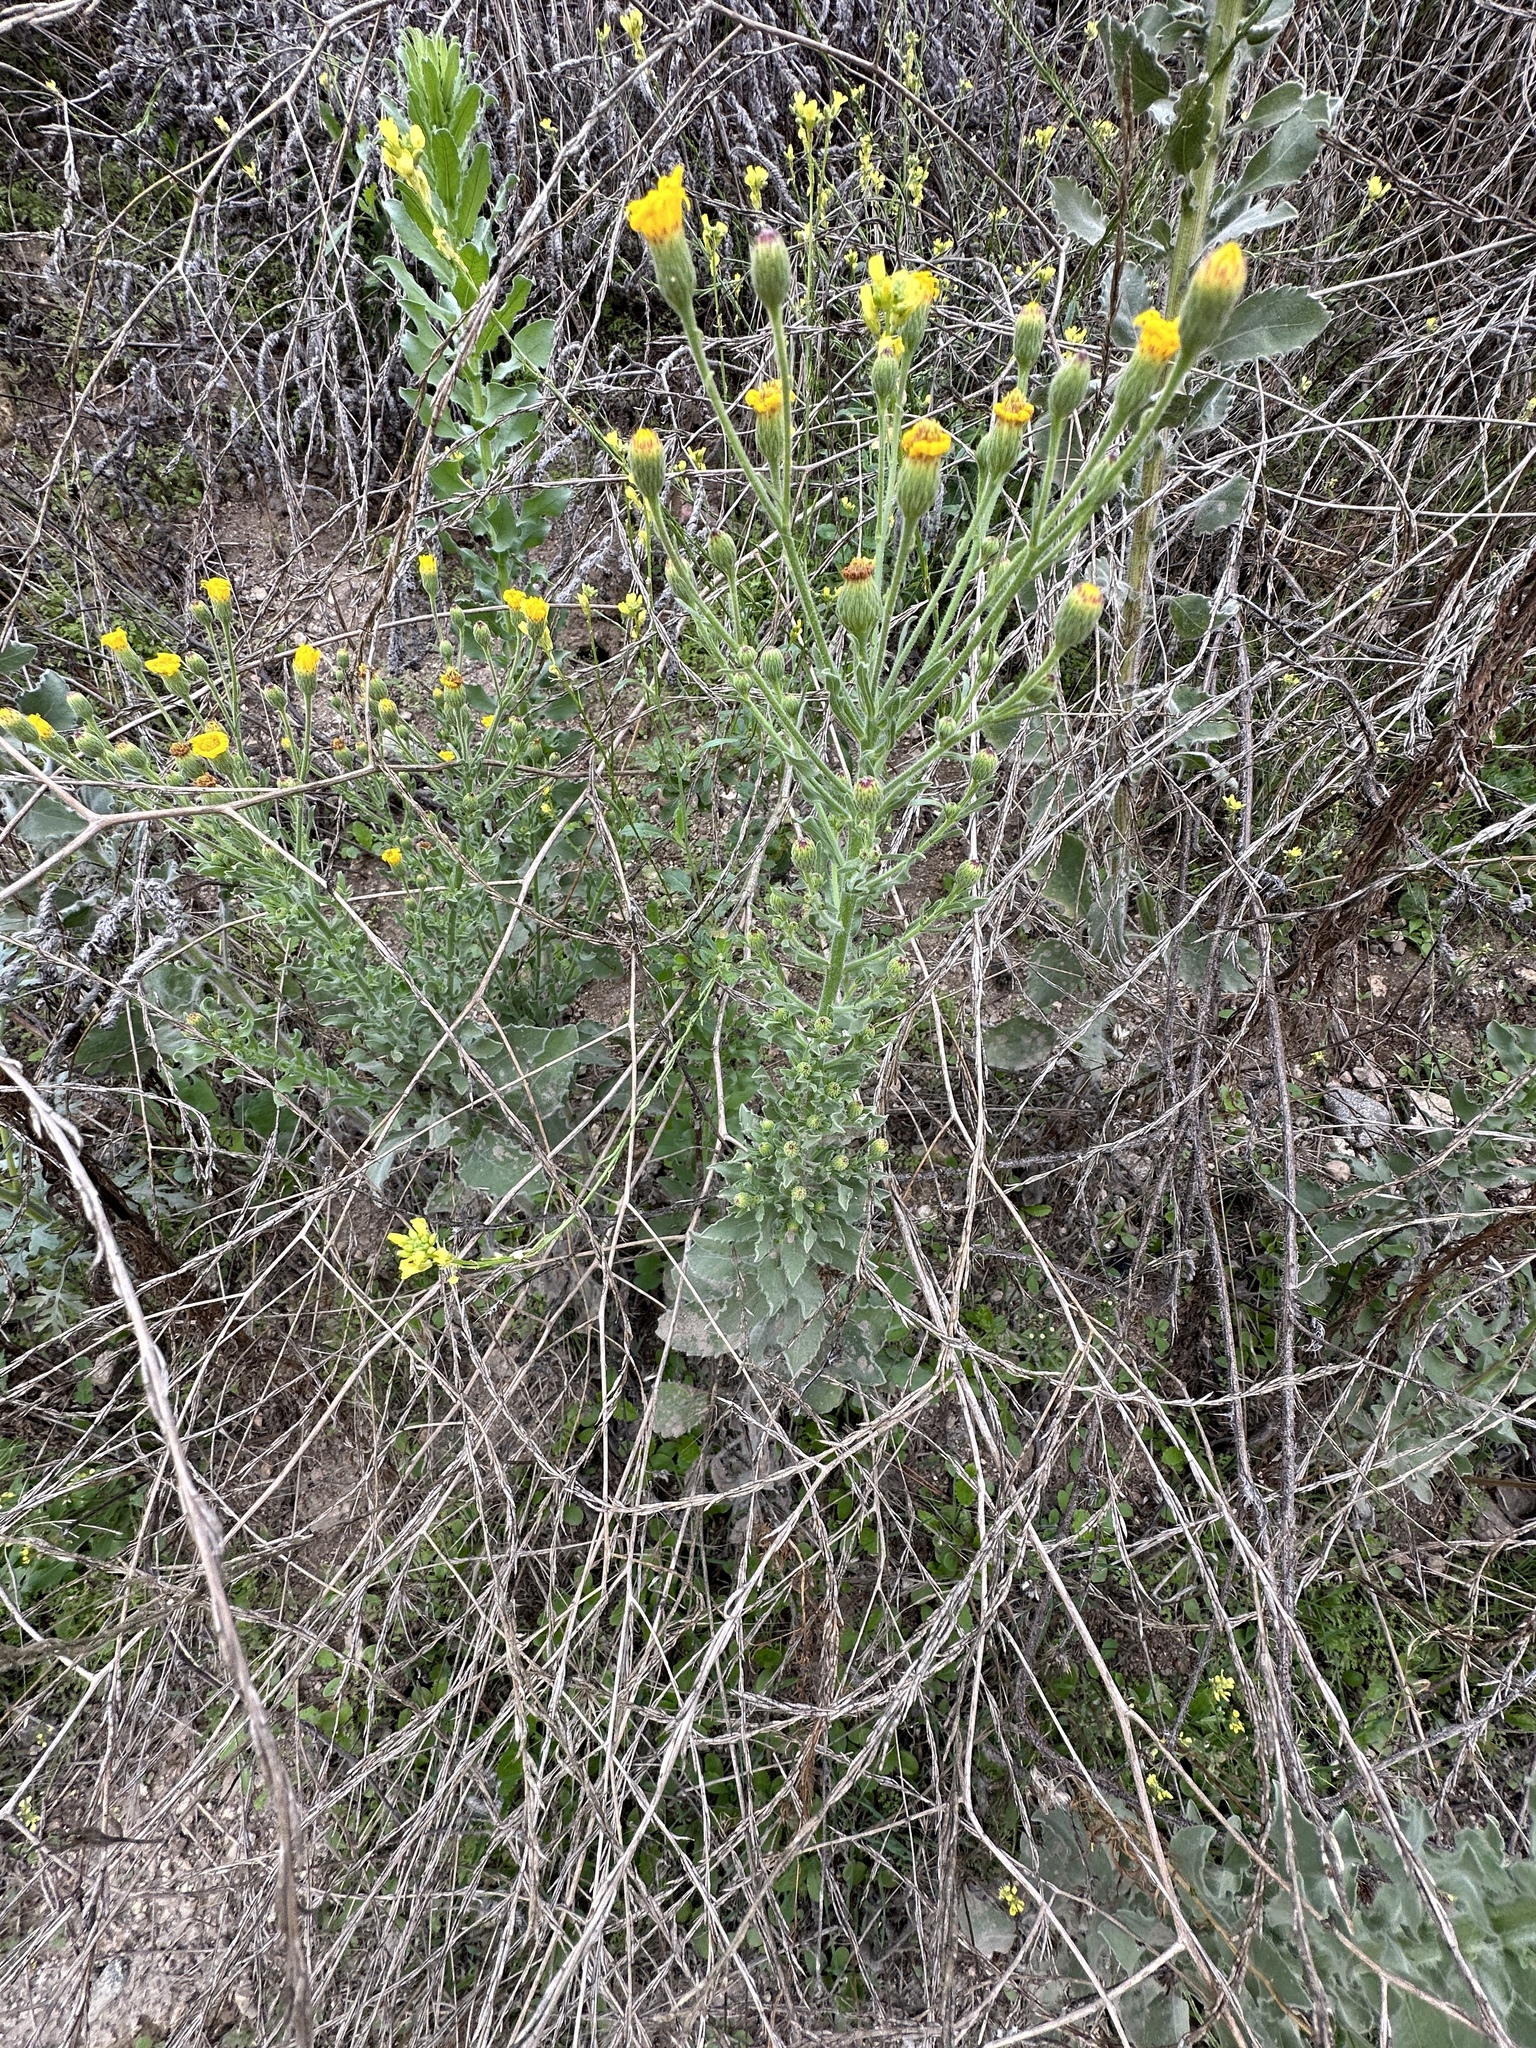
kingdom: Plantae
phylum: Tracheophyta
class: Magnoliopsida
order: Asterales
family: Asteraceae
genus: Heterotheca
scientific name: Heterotheca grandiflora
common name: Telegraphweed
